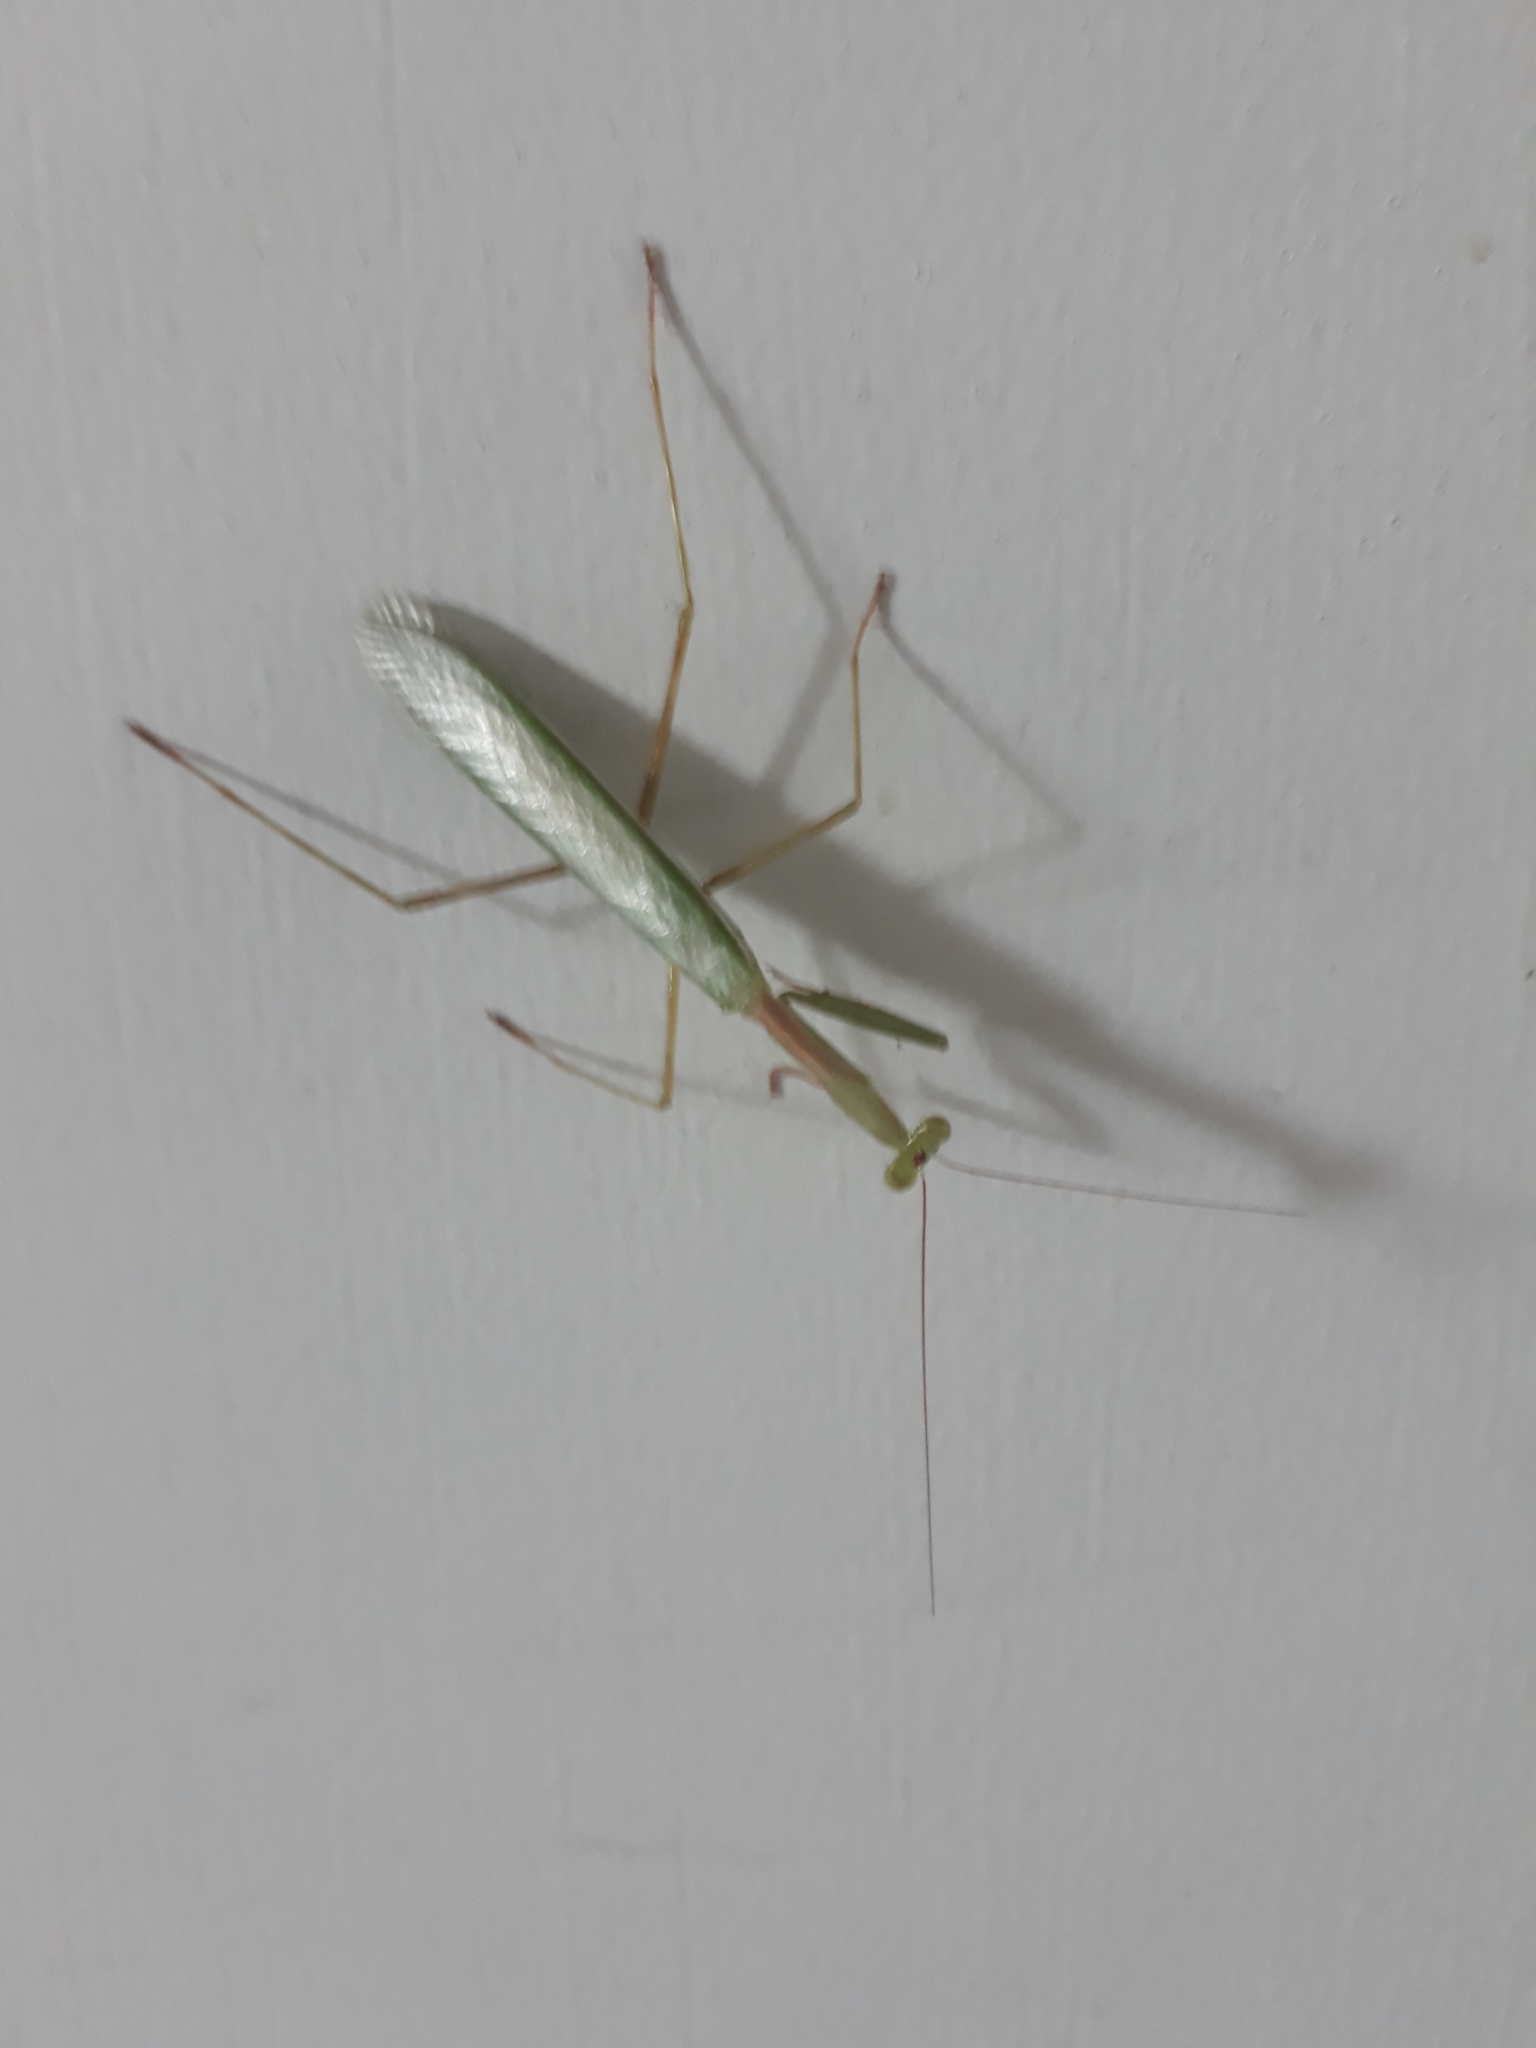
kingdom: Animalia
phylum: Arthropoda
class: Insecta
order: Mantodea
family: Miomantidae
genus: Miomantis
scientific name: Miomantis caffra
